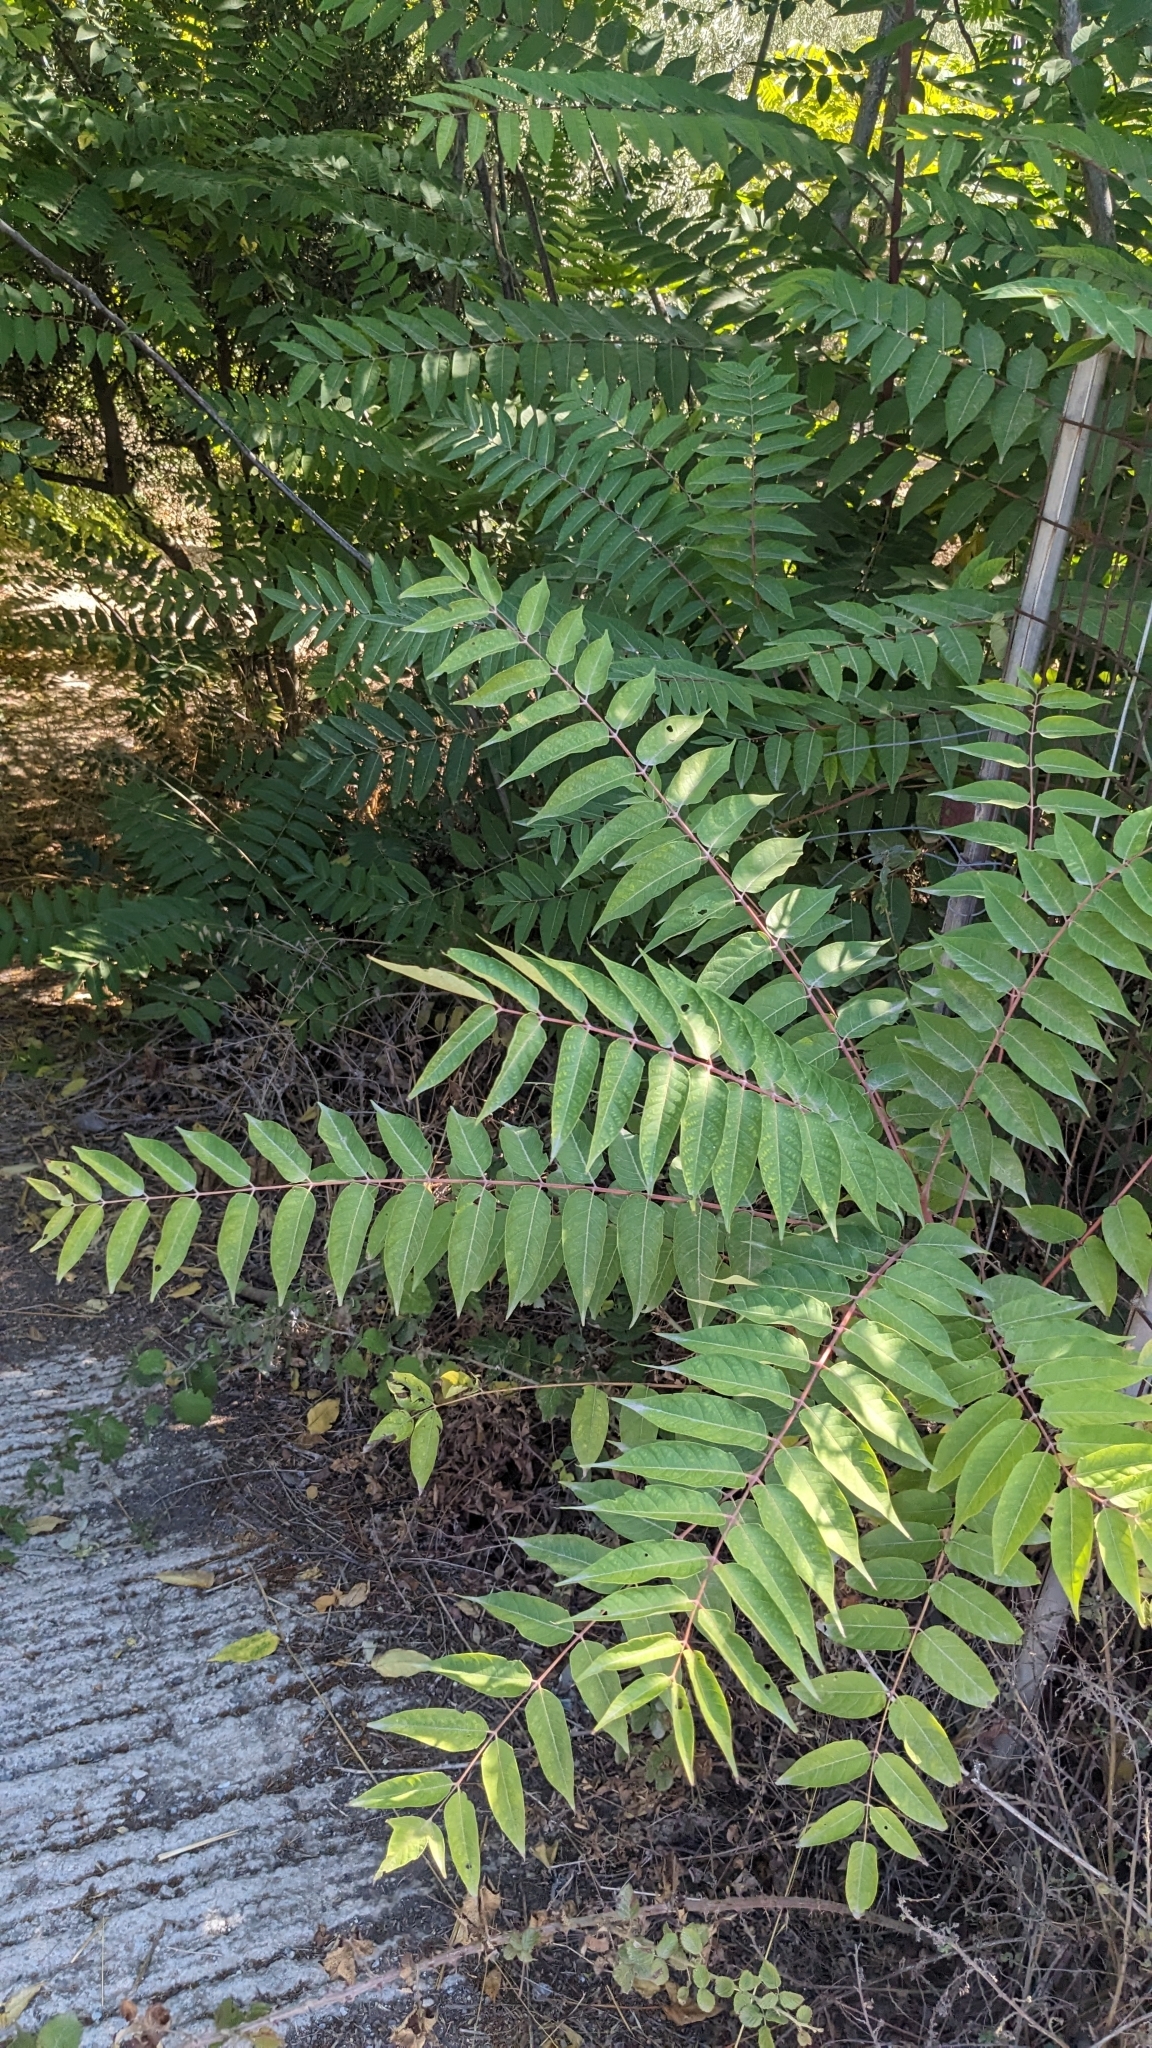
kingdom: Plantae
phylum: Tracheophyta
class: Magnoliopsida
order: Sapindales
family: Simaroubaceae
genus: Ailanthus
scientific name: Ailanthus altissima
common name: Tree-of-heaven
